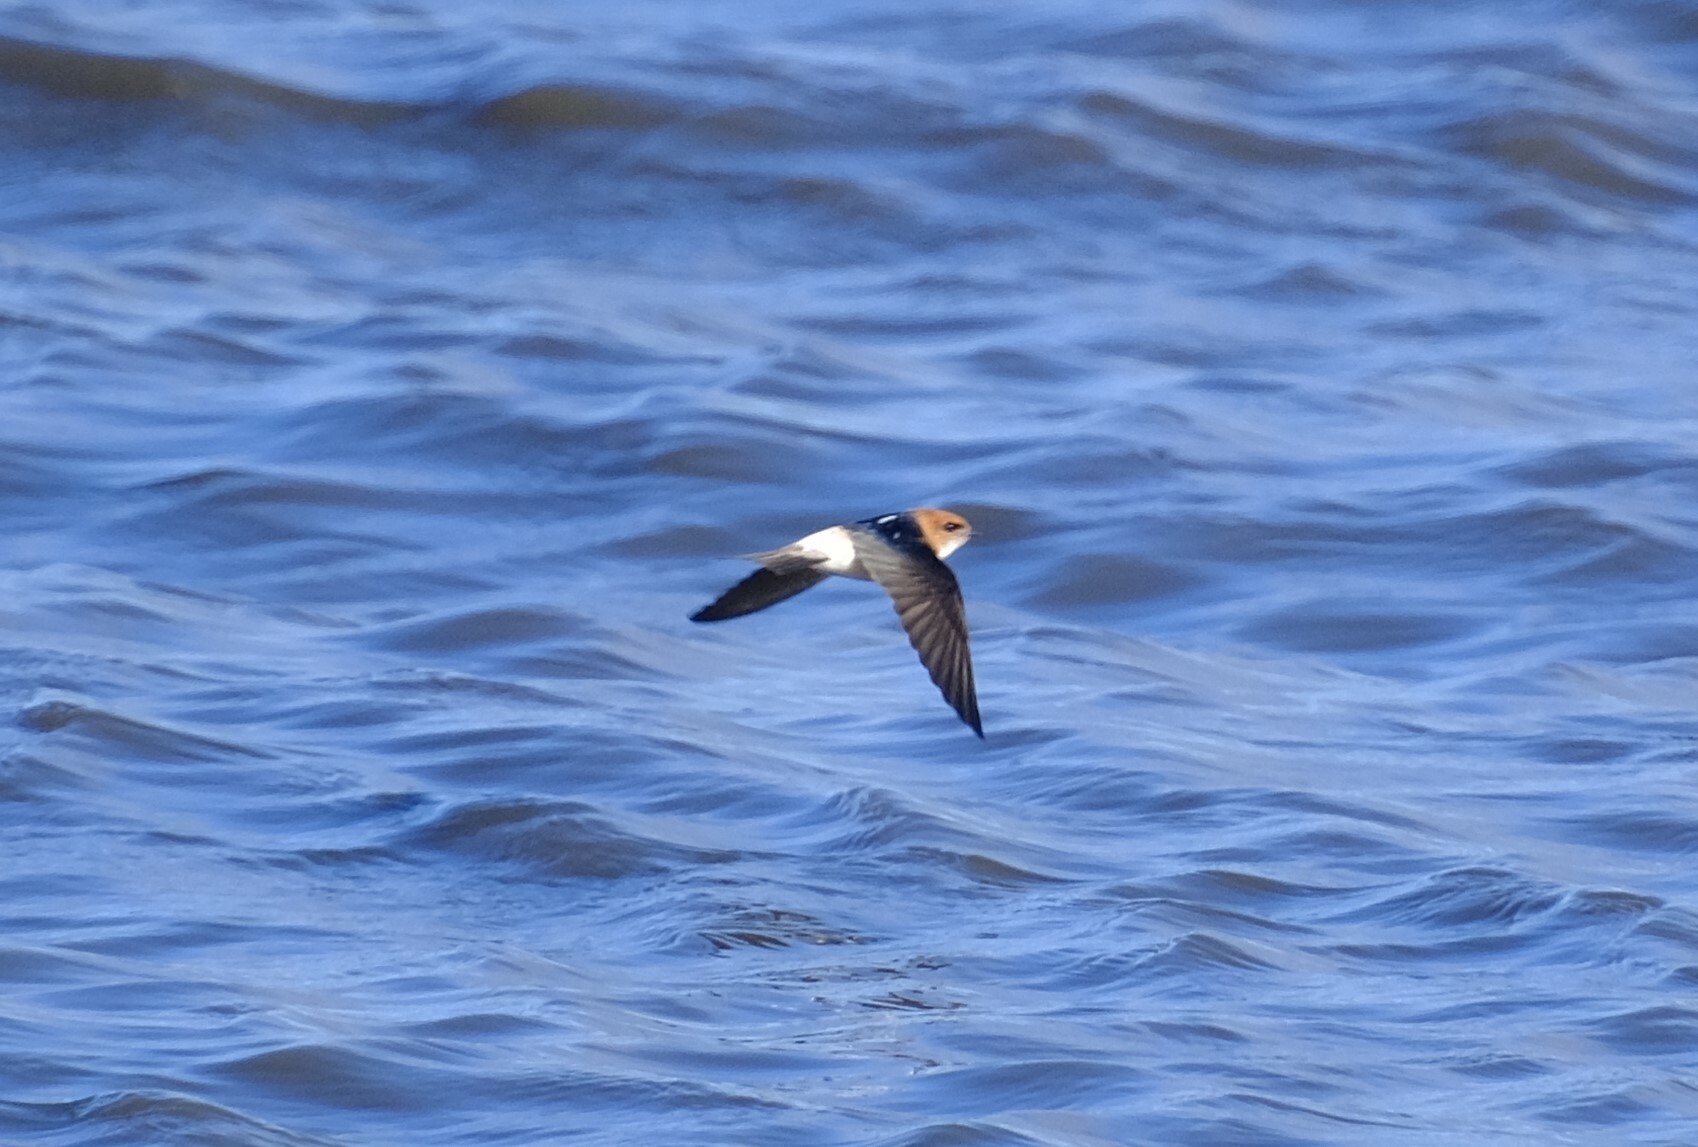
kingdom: Animalia
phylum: Chordata
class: Aves
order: Passeriformes
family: Hirundinidae
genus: Petrochelidon
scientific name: Petrochelidon ariel
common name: Fairy martin
